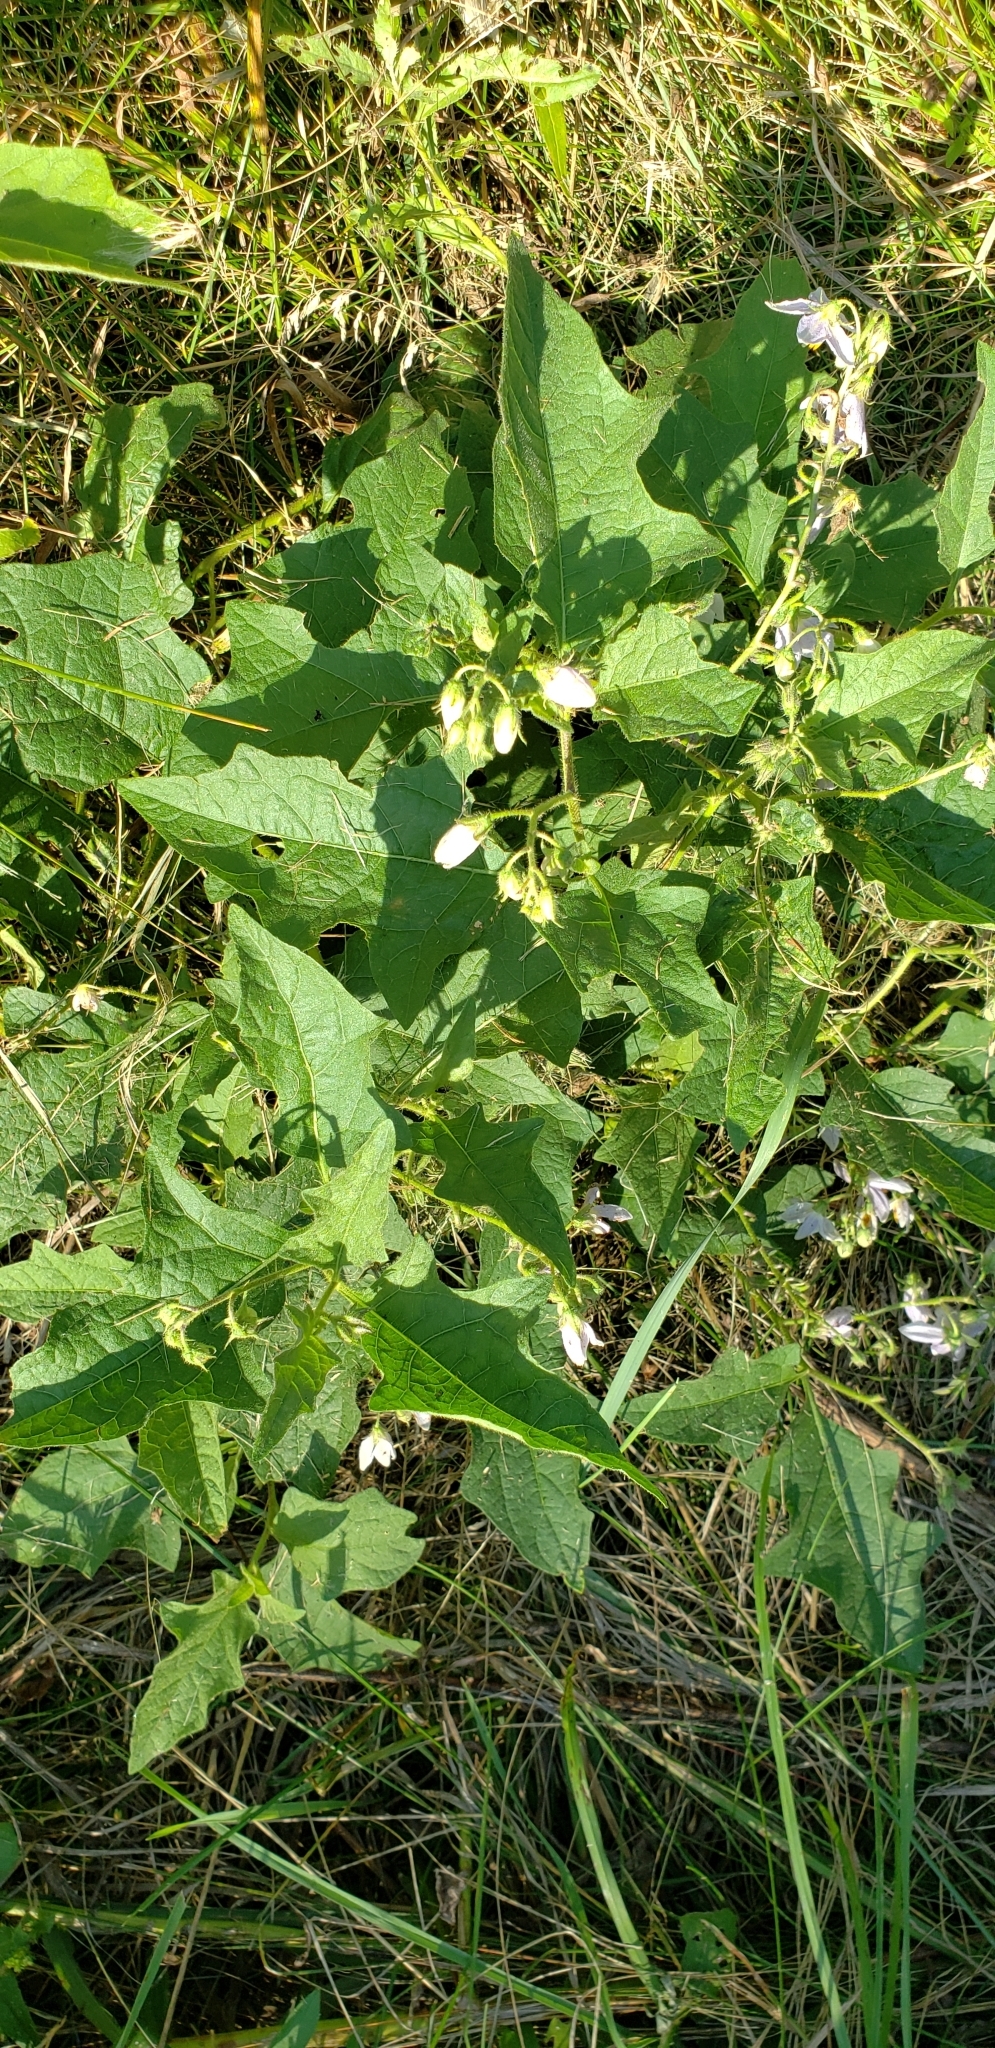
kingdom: Plantae
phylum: Tracheophyta
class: Magnoliopsida
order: Solanales
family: Solanaceae
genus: Solanum
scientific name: Solanum carolinense
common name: Horse-nettle
